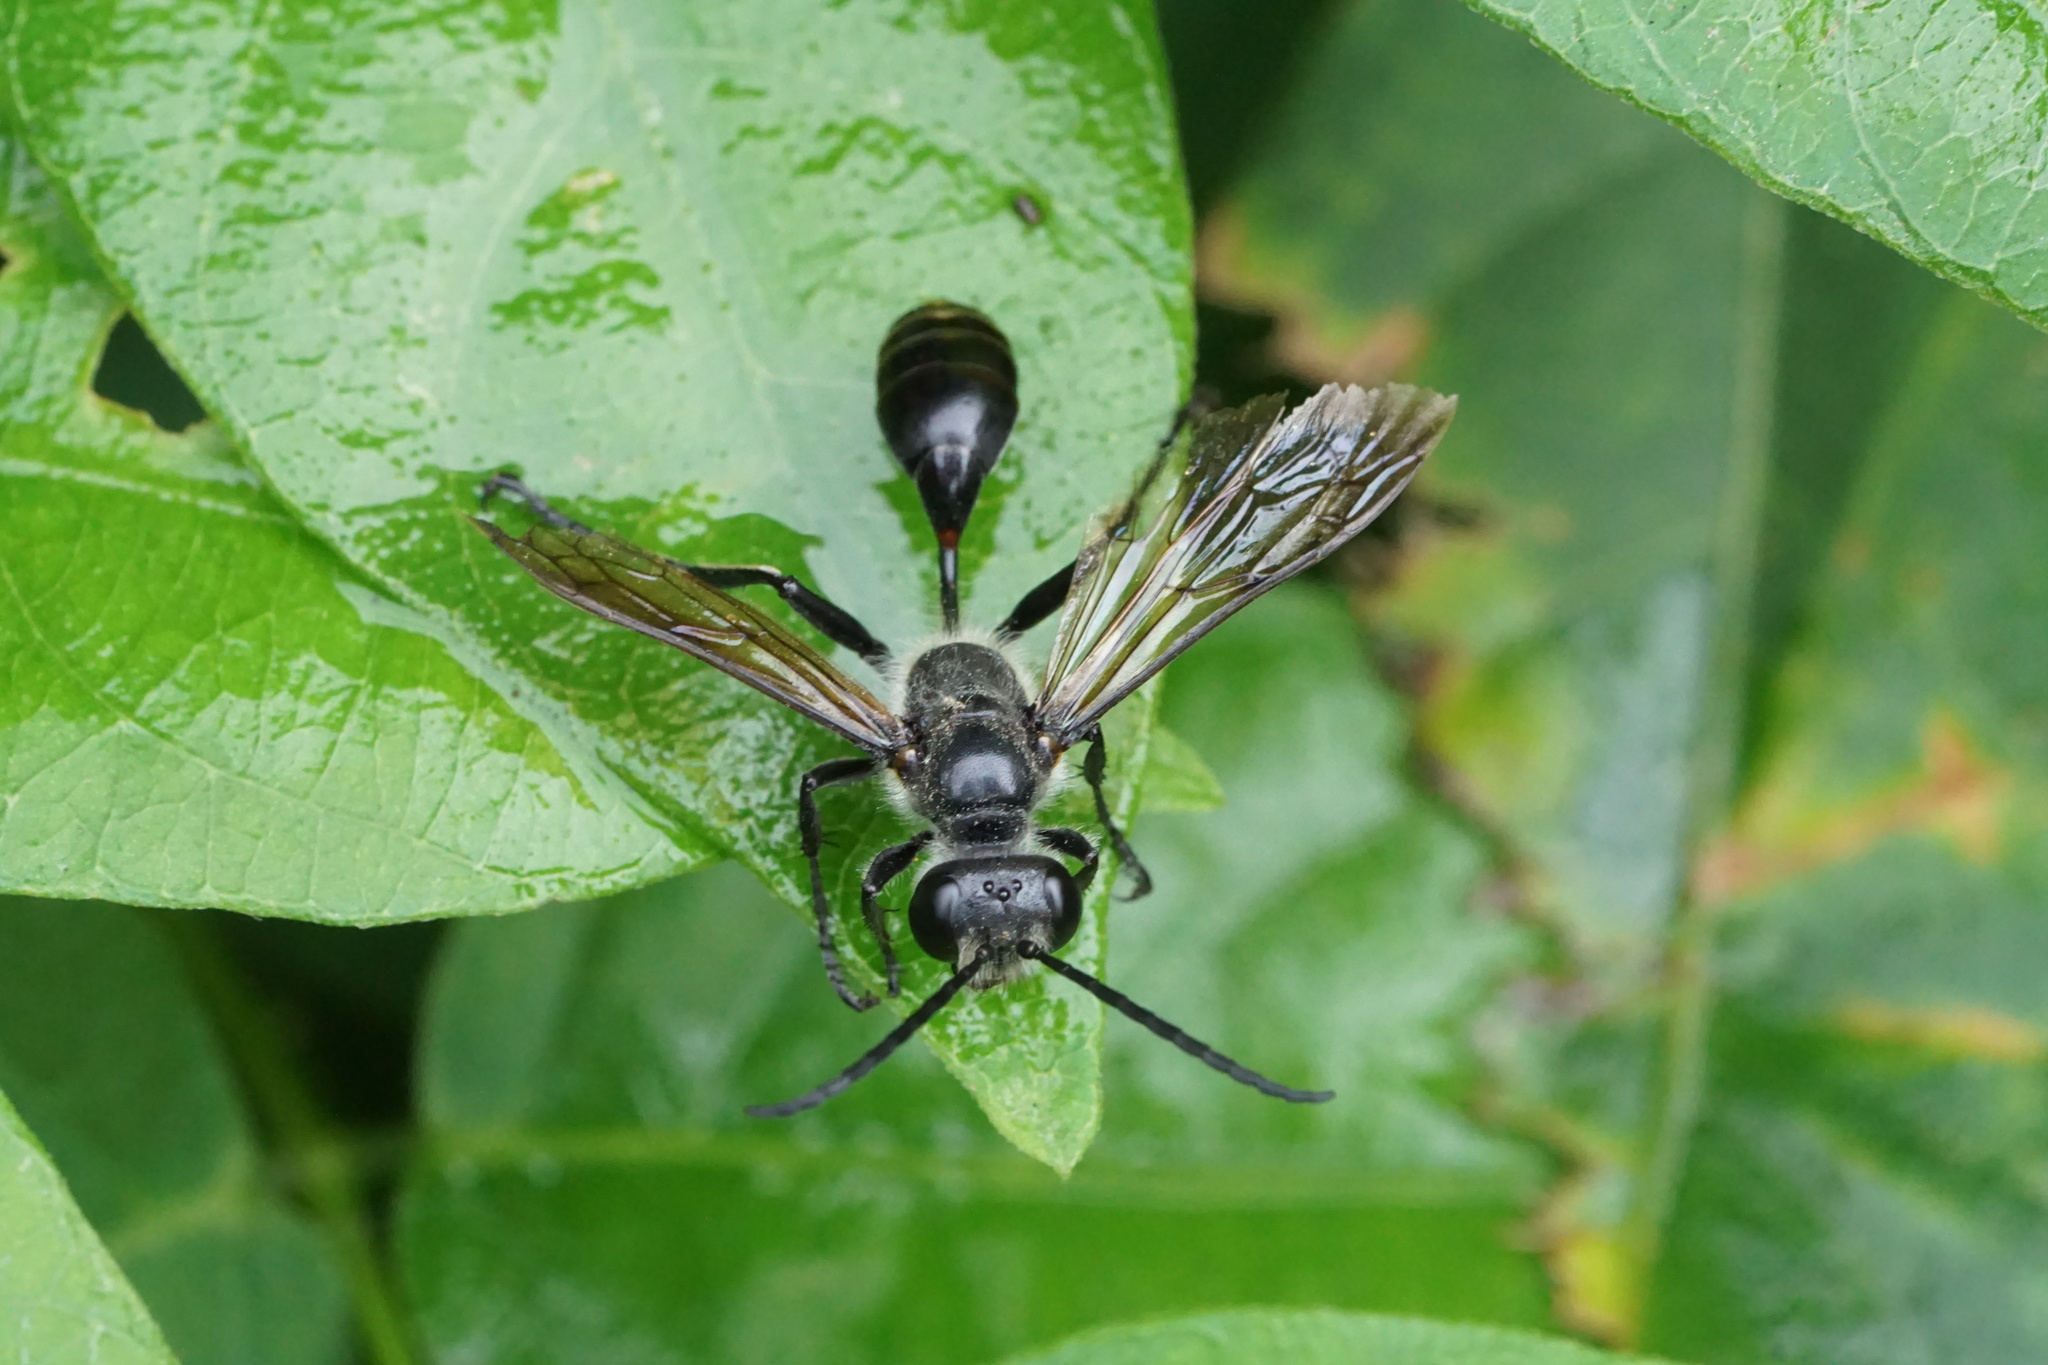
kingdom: Animalia
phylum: Arthropoda
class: Insecta
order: Hymenoptera
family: Sphecidae
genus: Isodontia
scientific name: Isodontia mexicana
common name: Mud dauber
